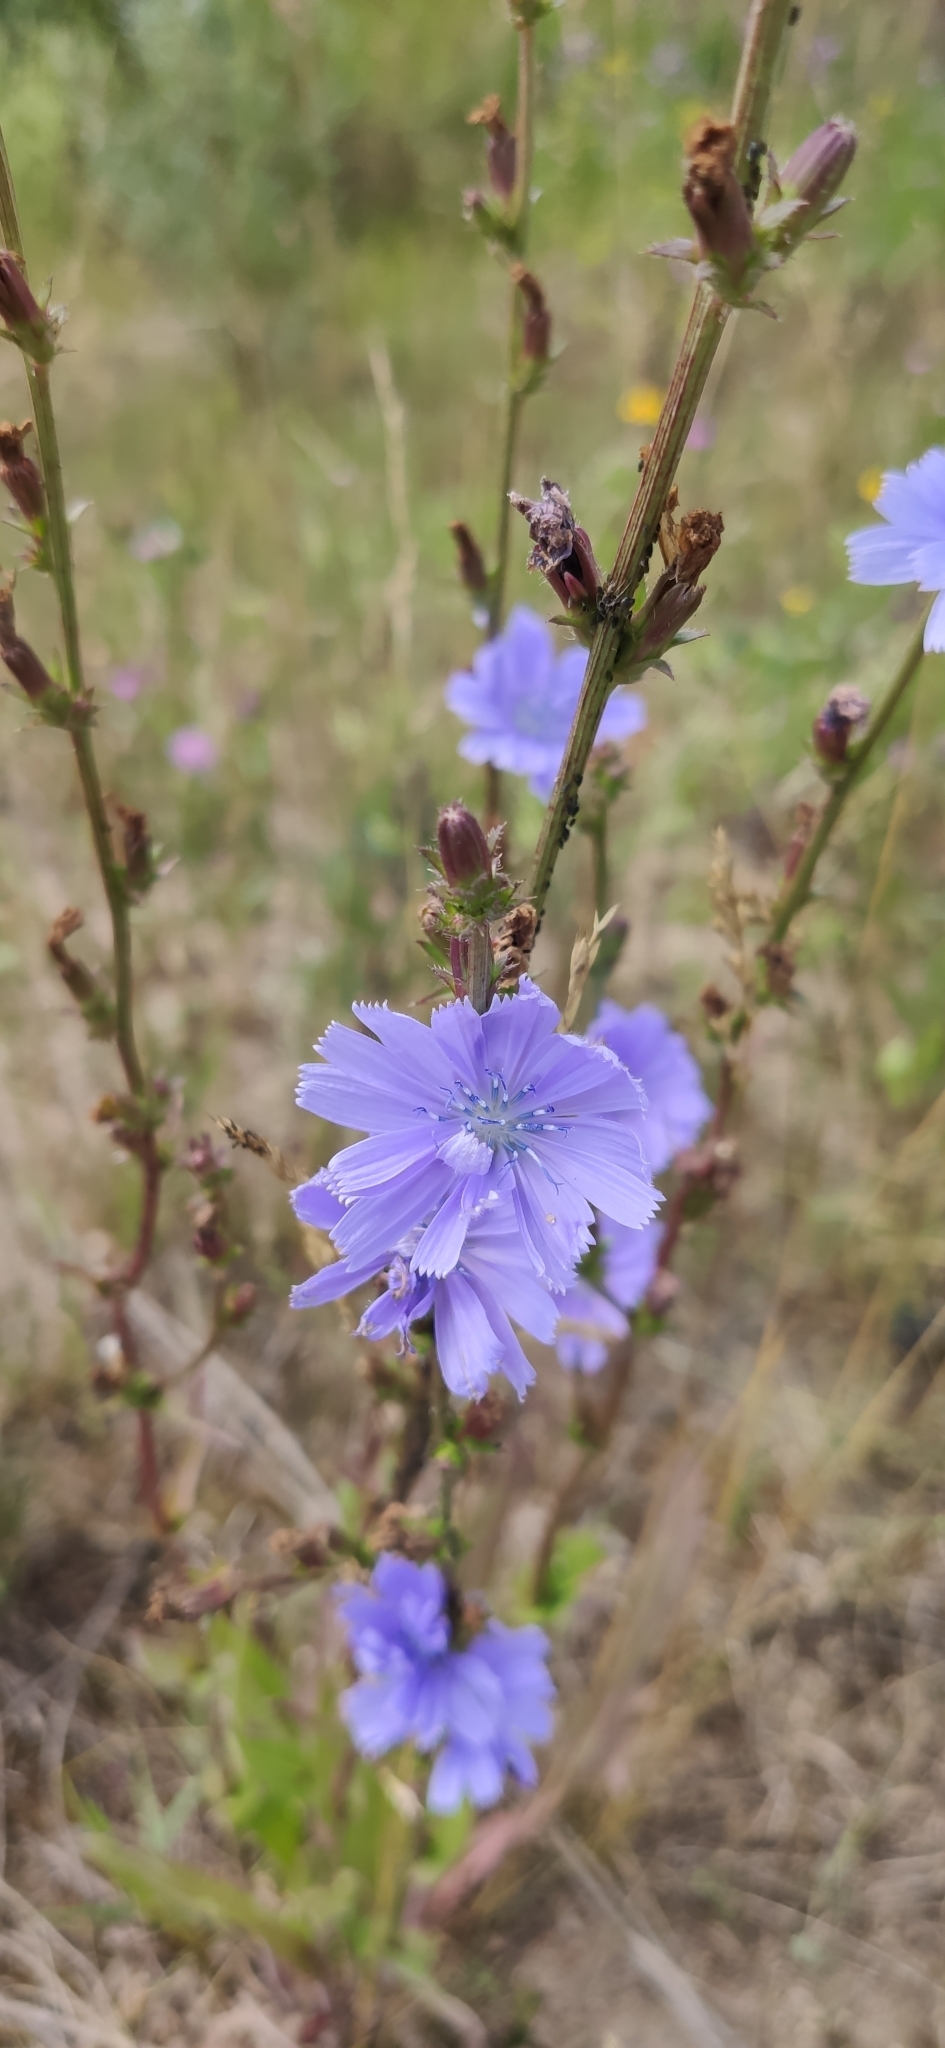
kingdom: Plantae
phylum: Tracheophyta
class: Magnoliopsida
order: Asterales
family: Asteraceae
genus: Cichorium
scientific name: Cichorium intybus
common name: Chicory
